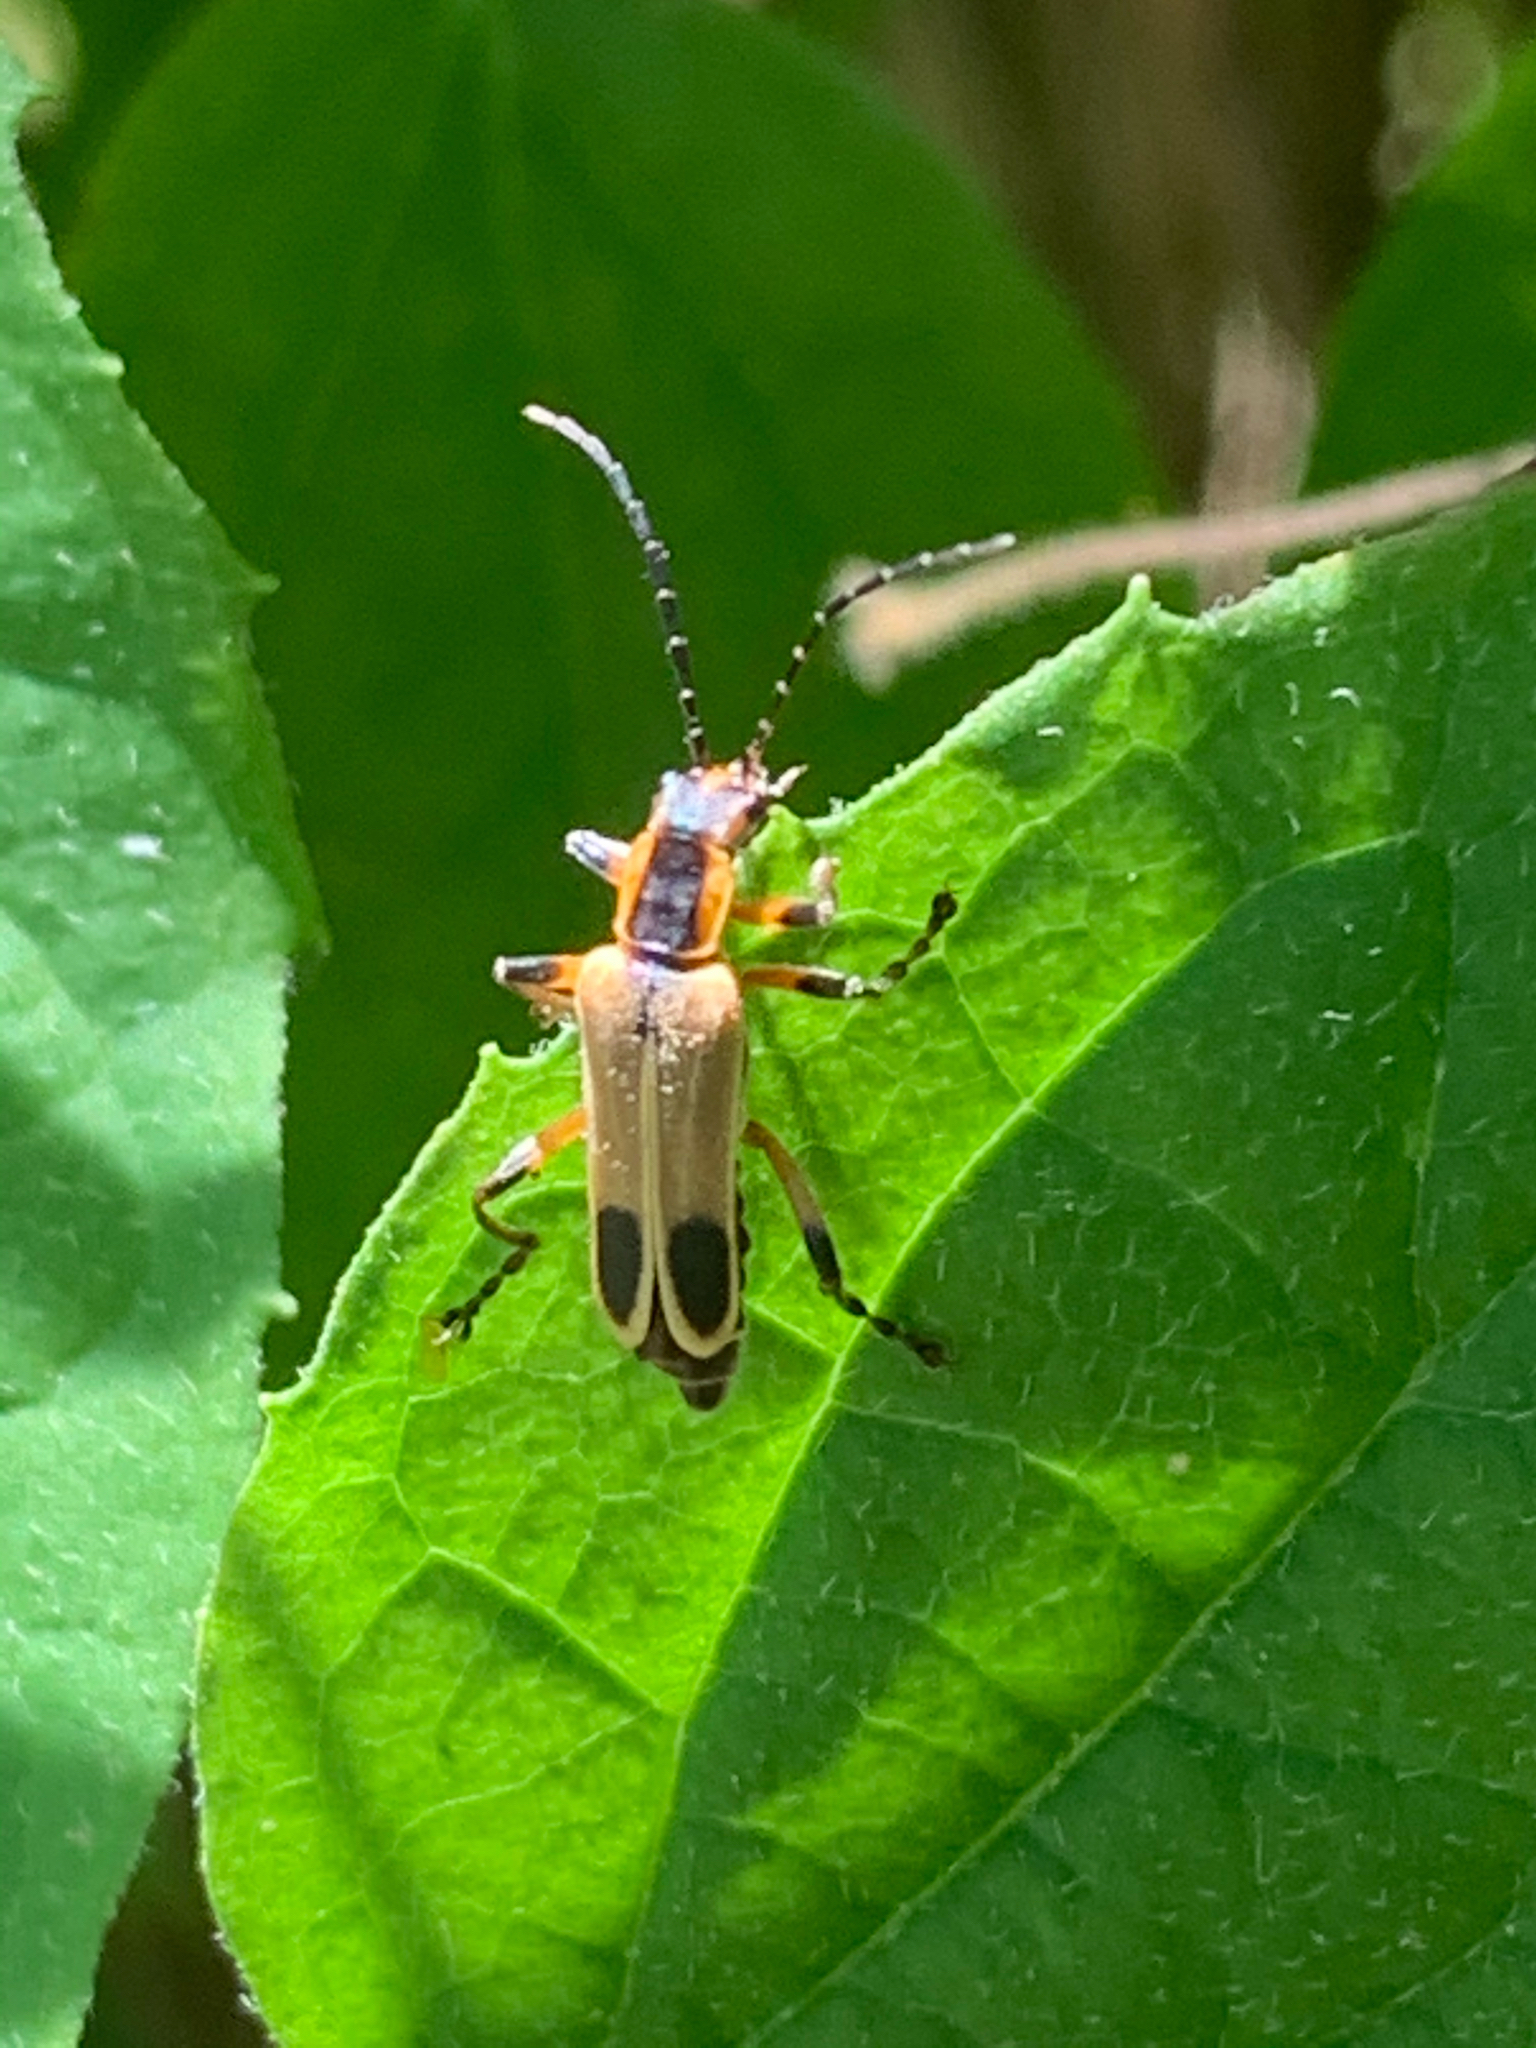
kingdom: Animalia
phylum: Arthropoda
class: Insecta
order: Coleoptera
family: Cantharidae
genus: Chauliognathus
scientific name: Chauliognathus marginatus
